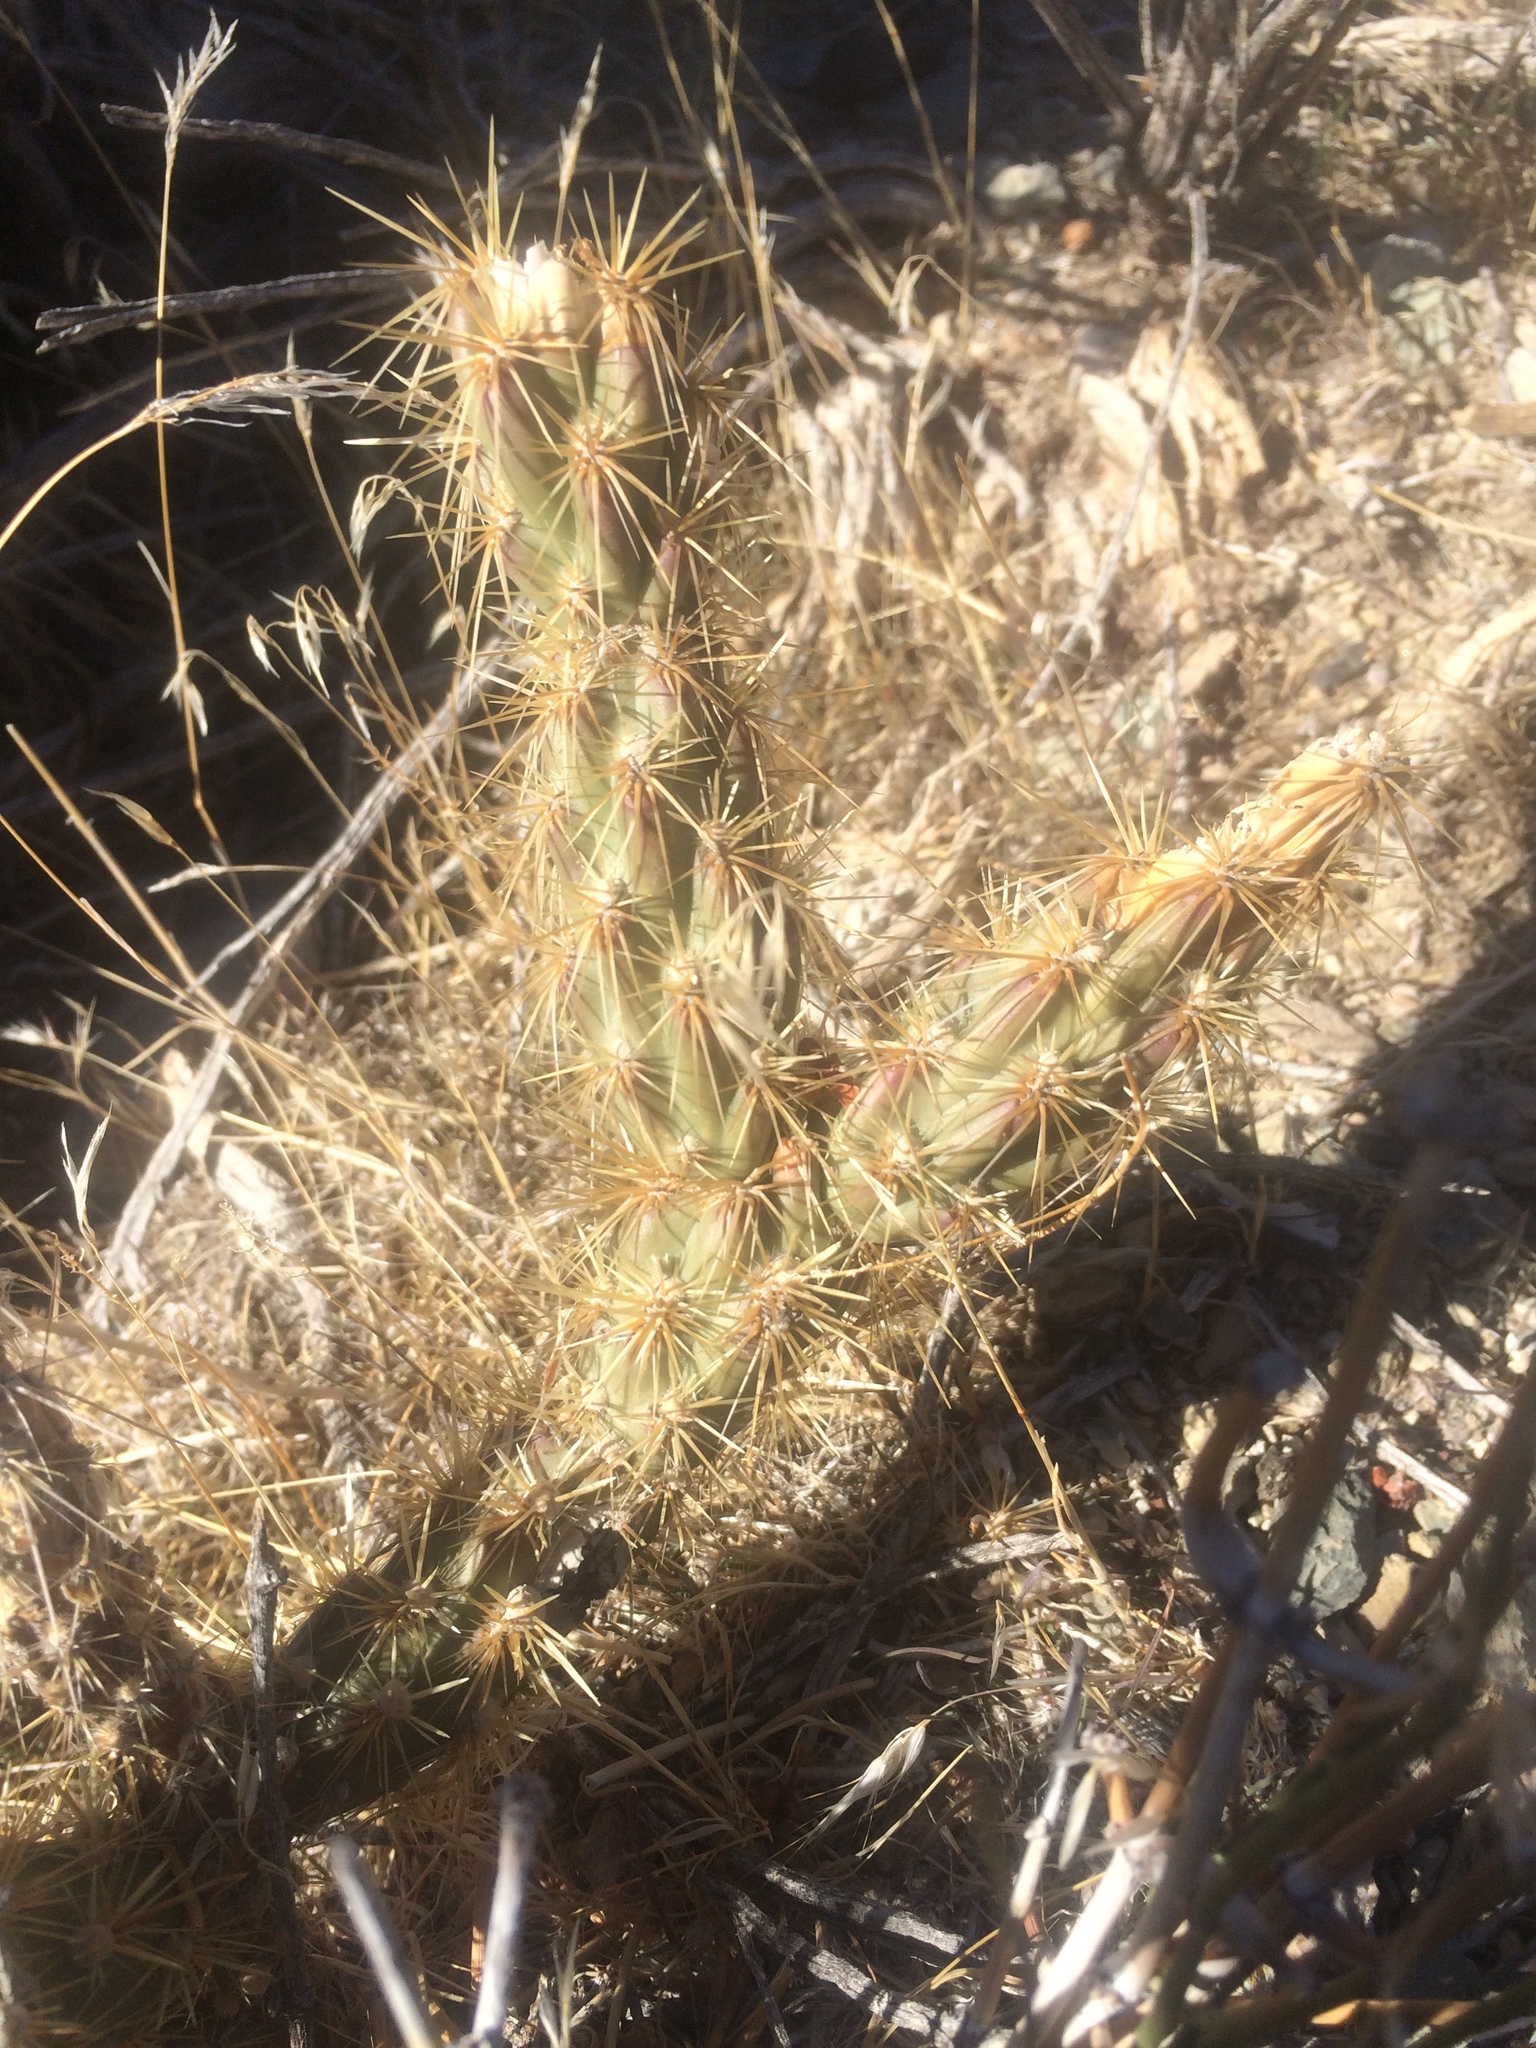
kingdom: Plantae
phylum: Tracheophyta
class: Magnoliopsida
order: Caryophyllales
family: Cactaceae
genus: Cylindropuntia
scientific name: Cylindropuntia acanthocarpa
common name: Buckhorn cholla
